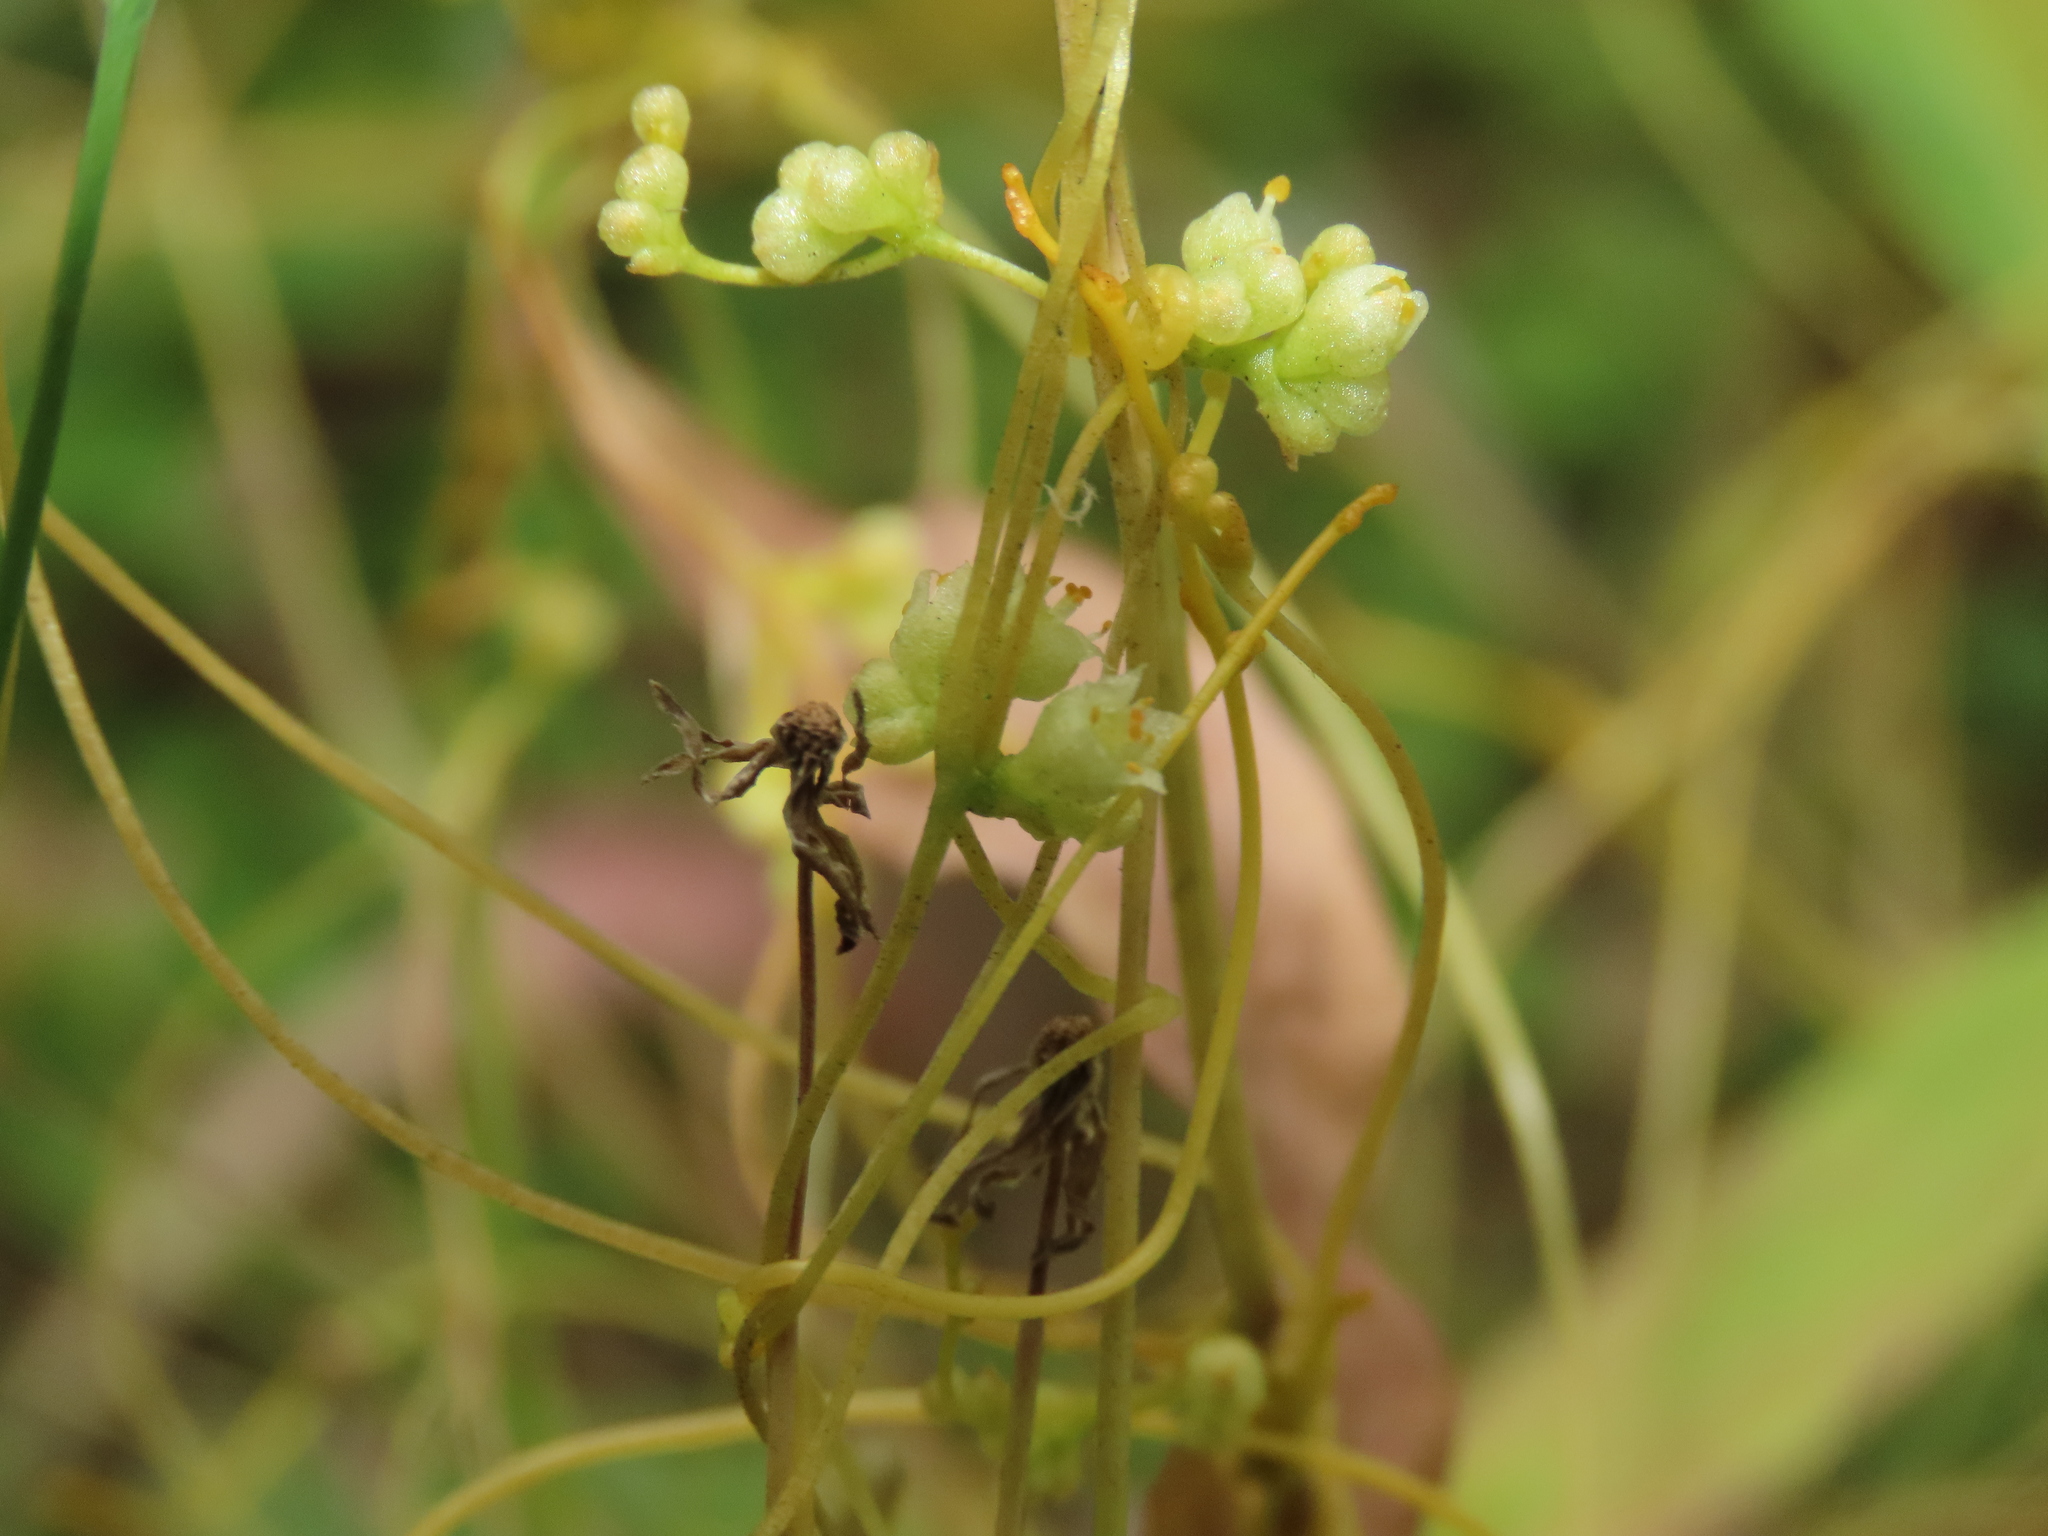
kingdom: Plantae
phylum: Tracheophyta
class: Magnoliopsida
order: Solanales
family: Convolvulaceae
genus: Cuscuta
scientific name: Cuscuta campestris
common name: Yellow dodder
